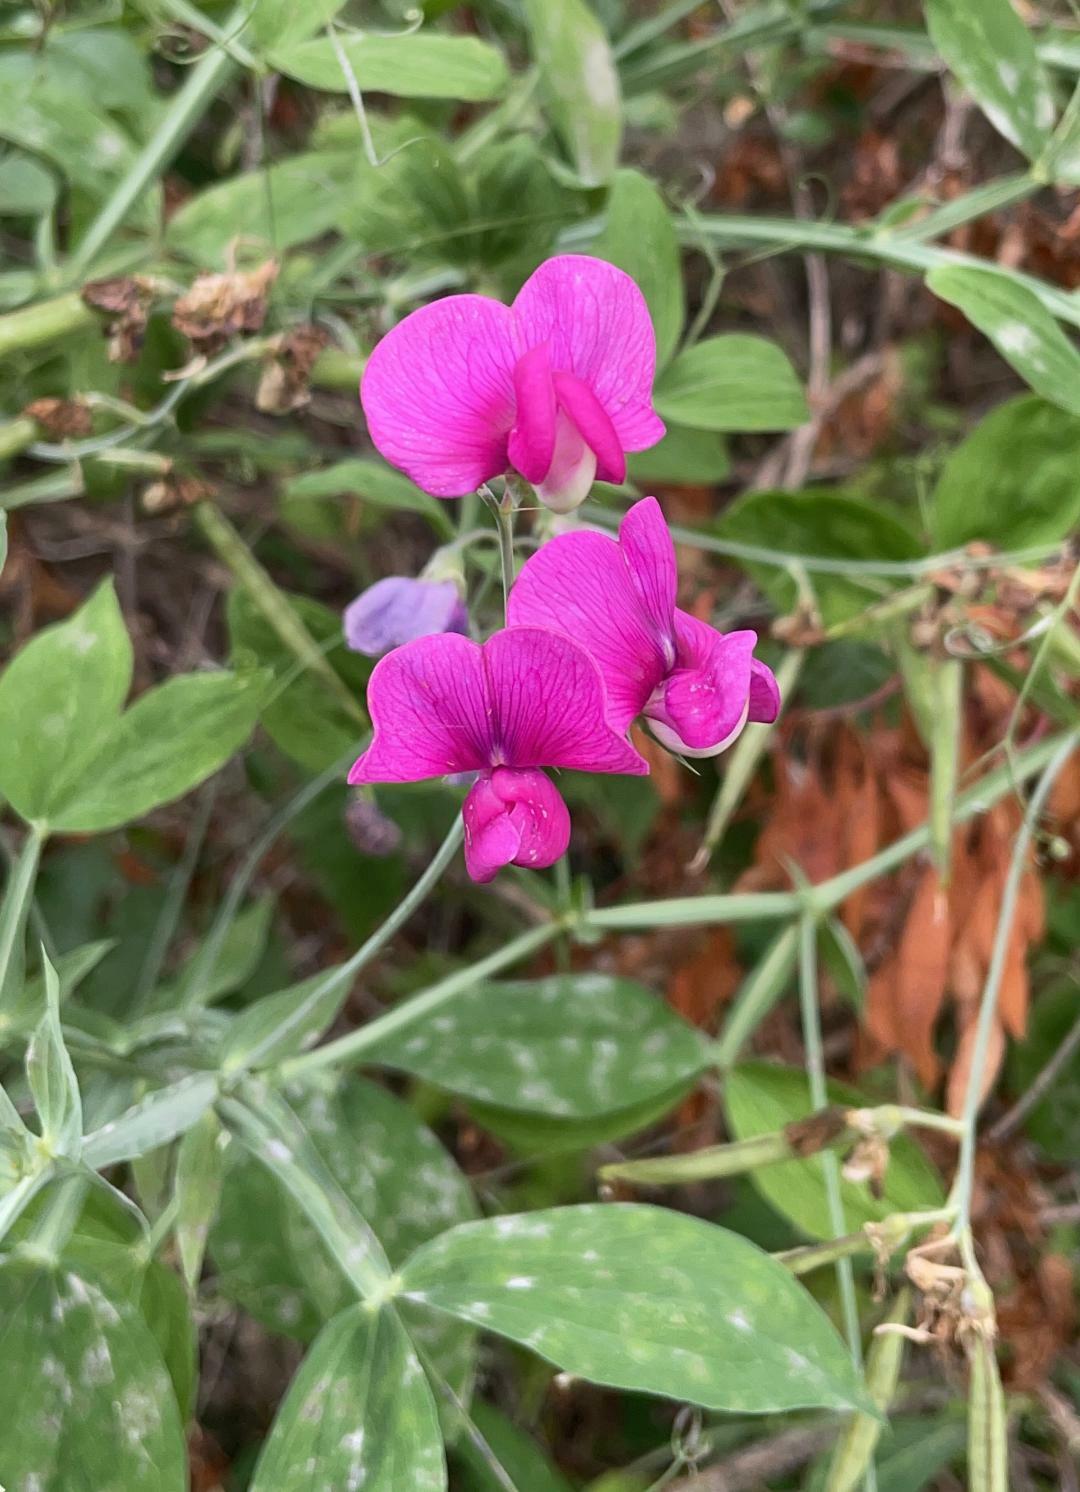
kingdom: Plantae
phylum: Tracheophyta
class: Magnoliopsida
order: Fabales
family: Fabaceae
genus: Lathyrus
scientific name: Lathyrus latifolius
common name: Perennial pea
